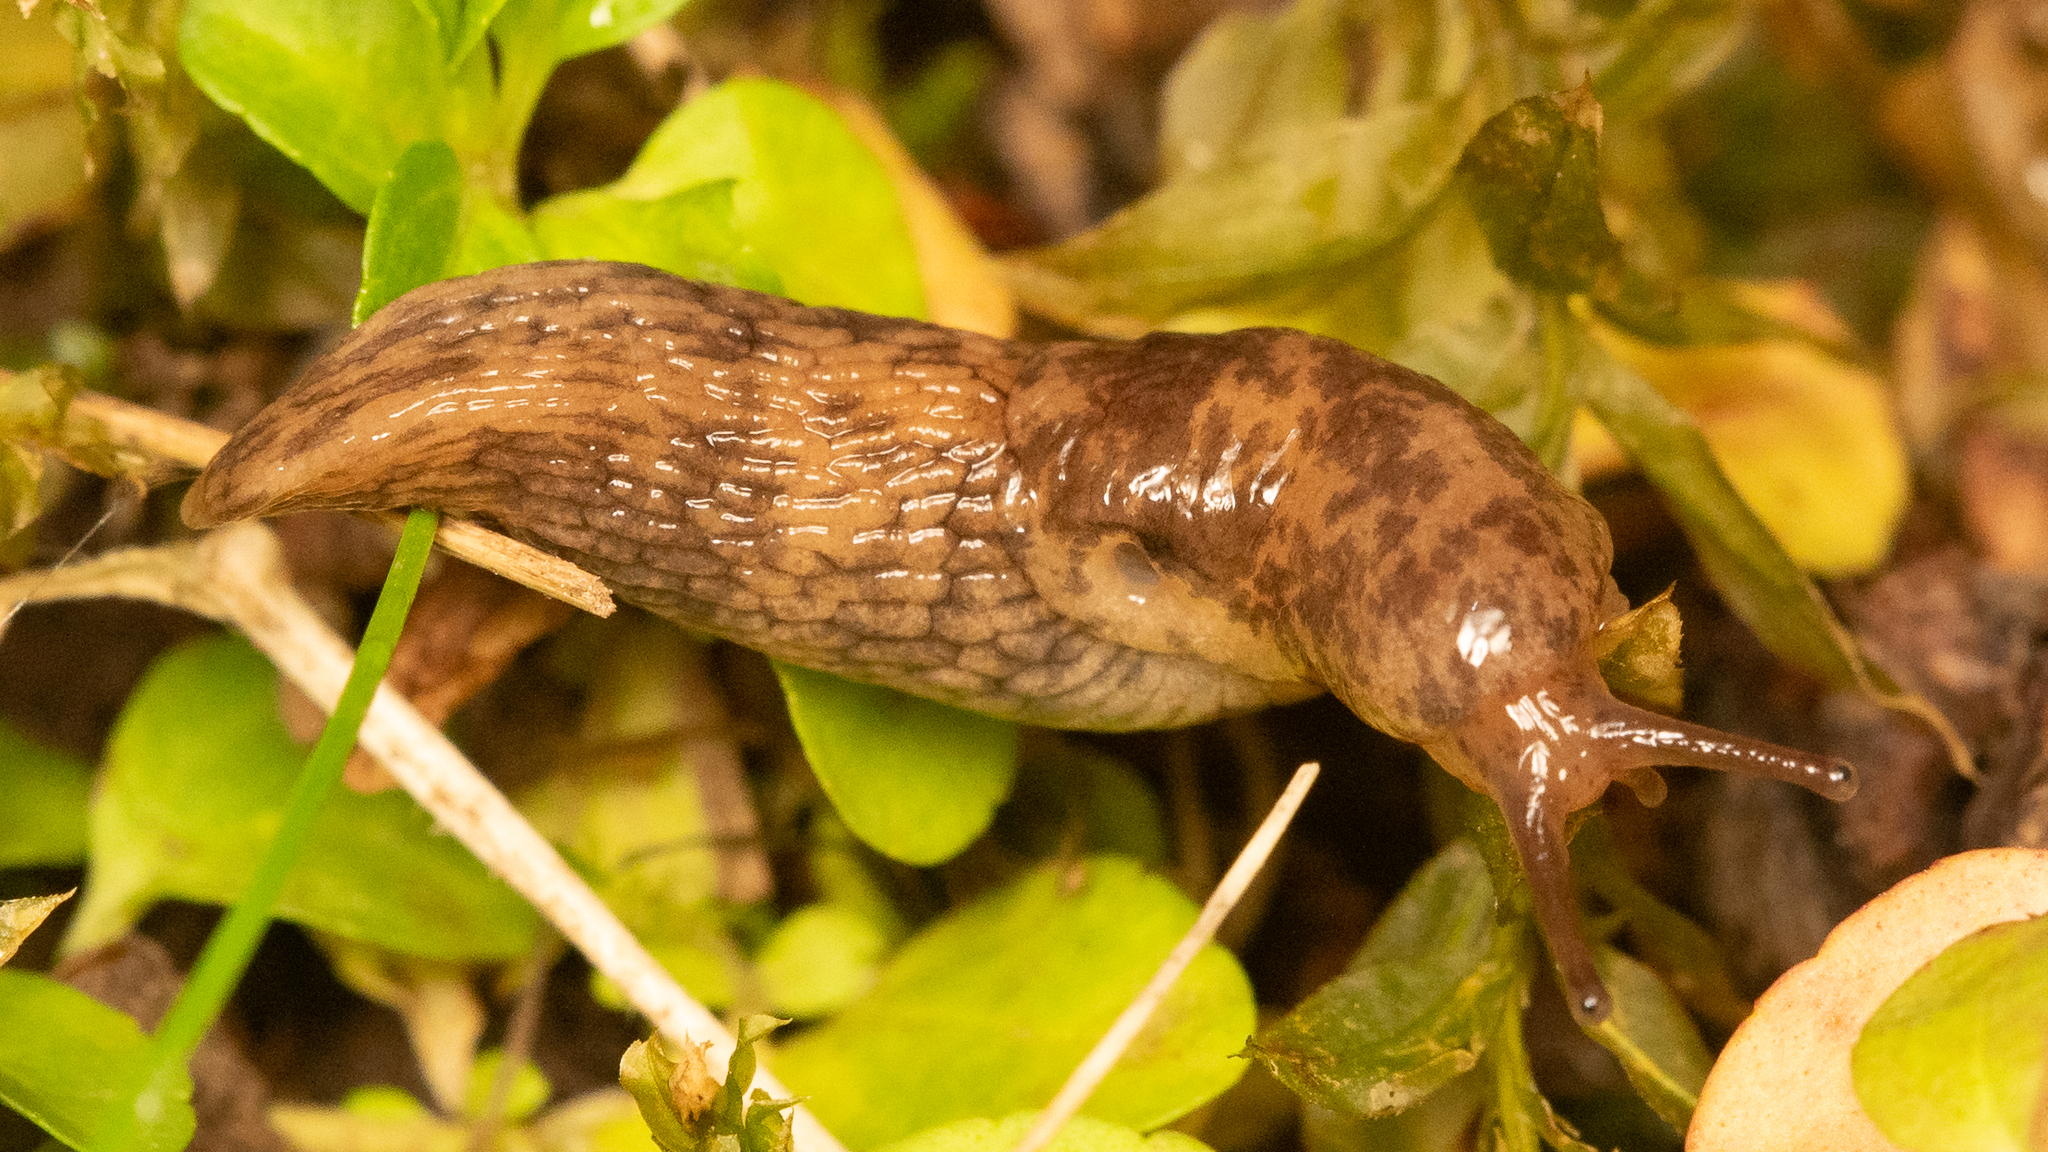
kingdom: Animalia
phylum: Mollusca
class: Gastropoda
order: Stylommatophora
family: Agriolimacidae
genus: Deroceras
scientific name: Deroceras reticulatum
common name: Gray field slug
